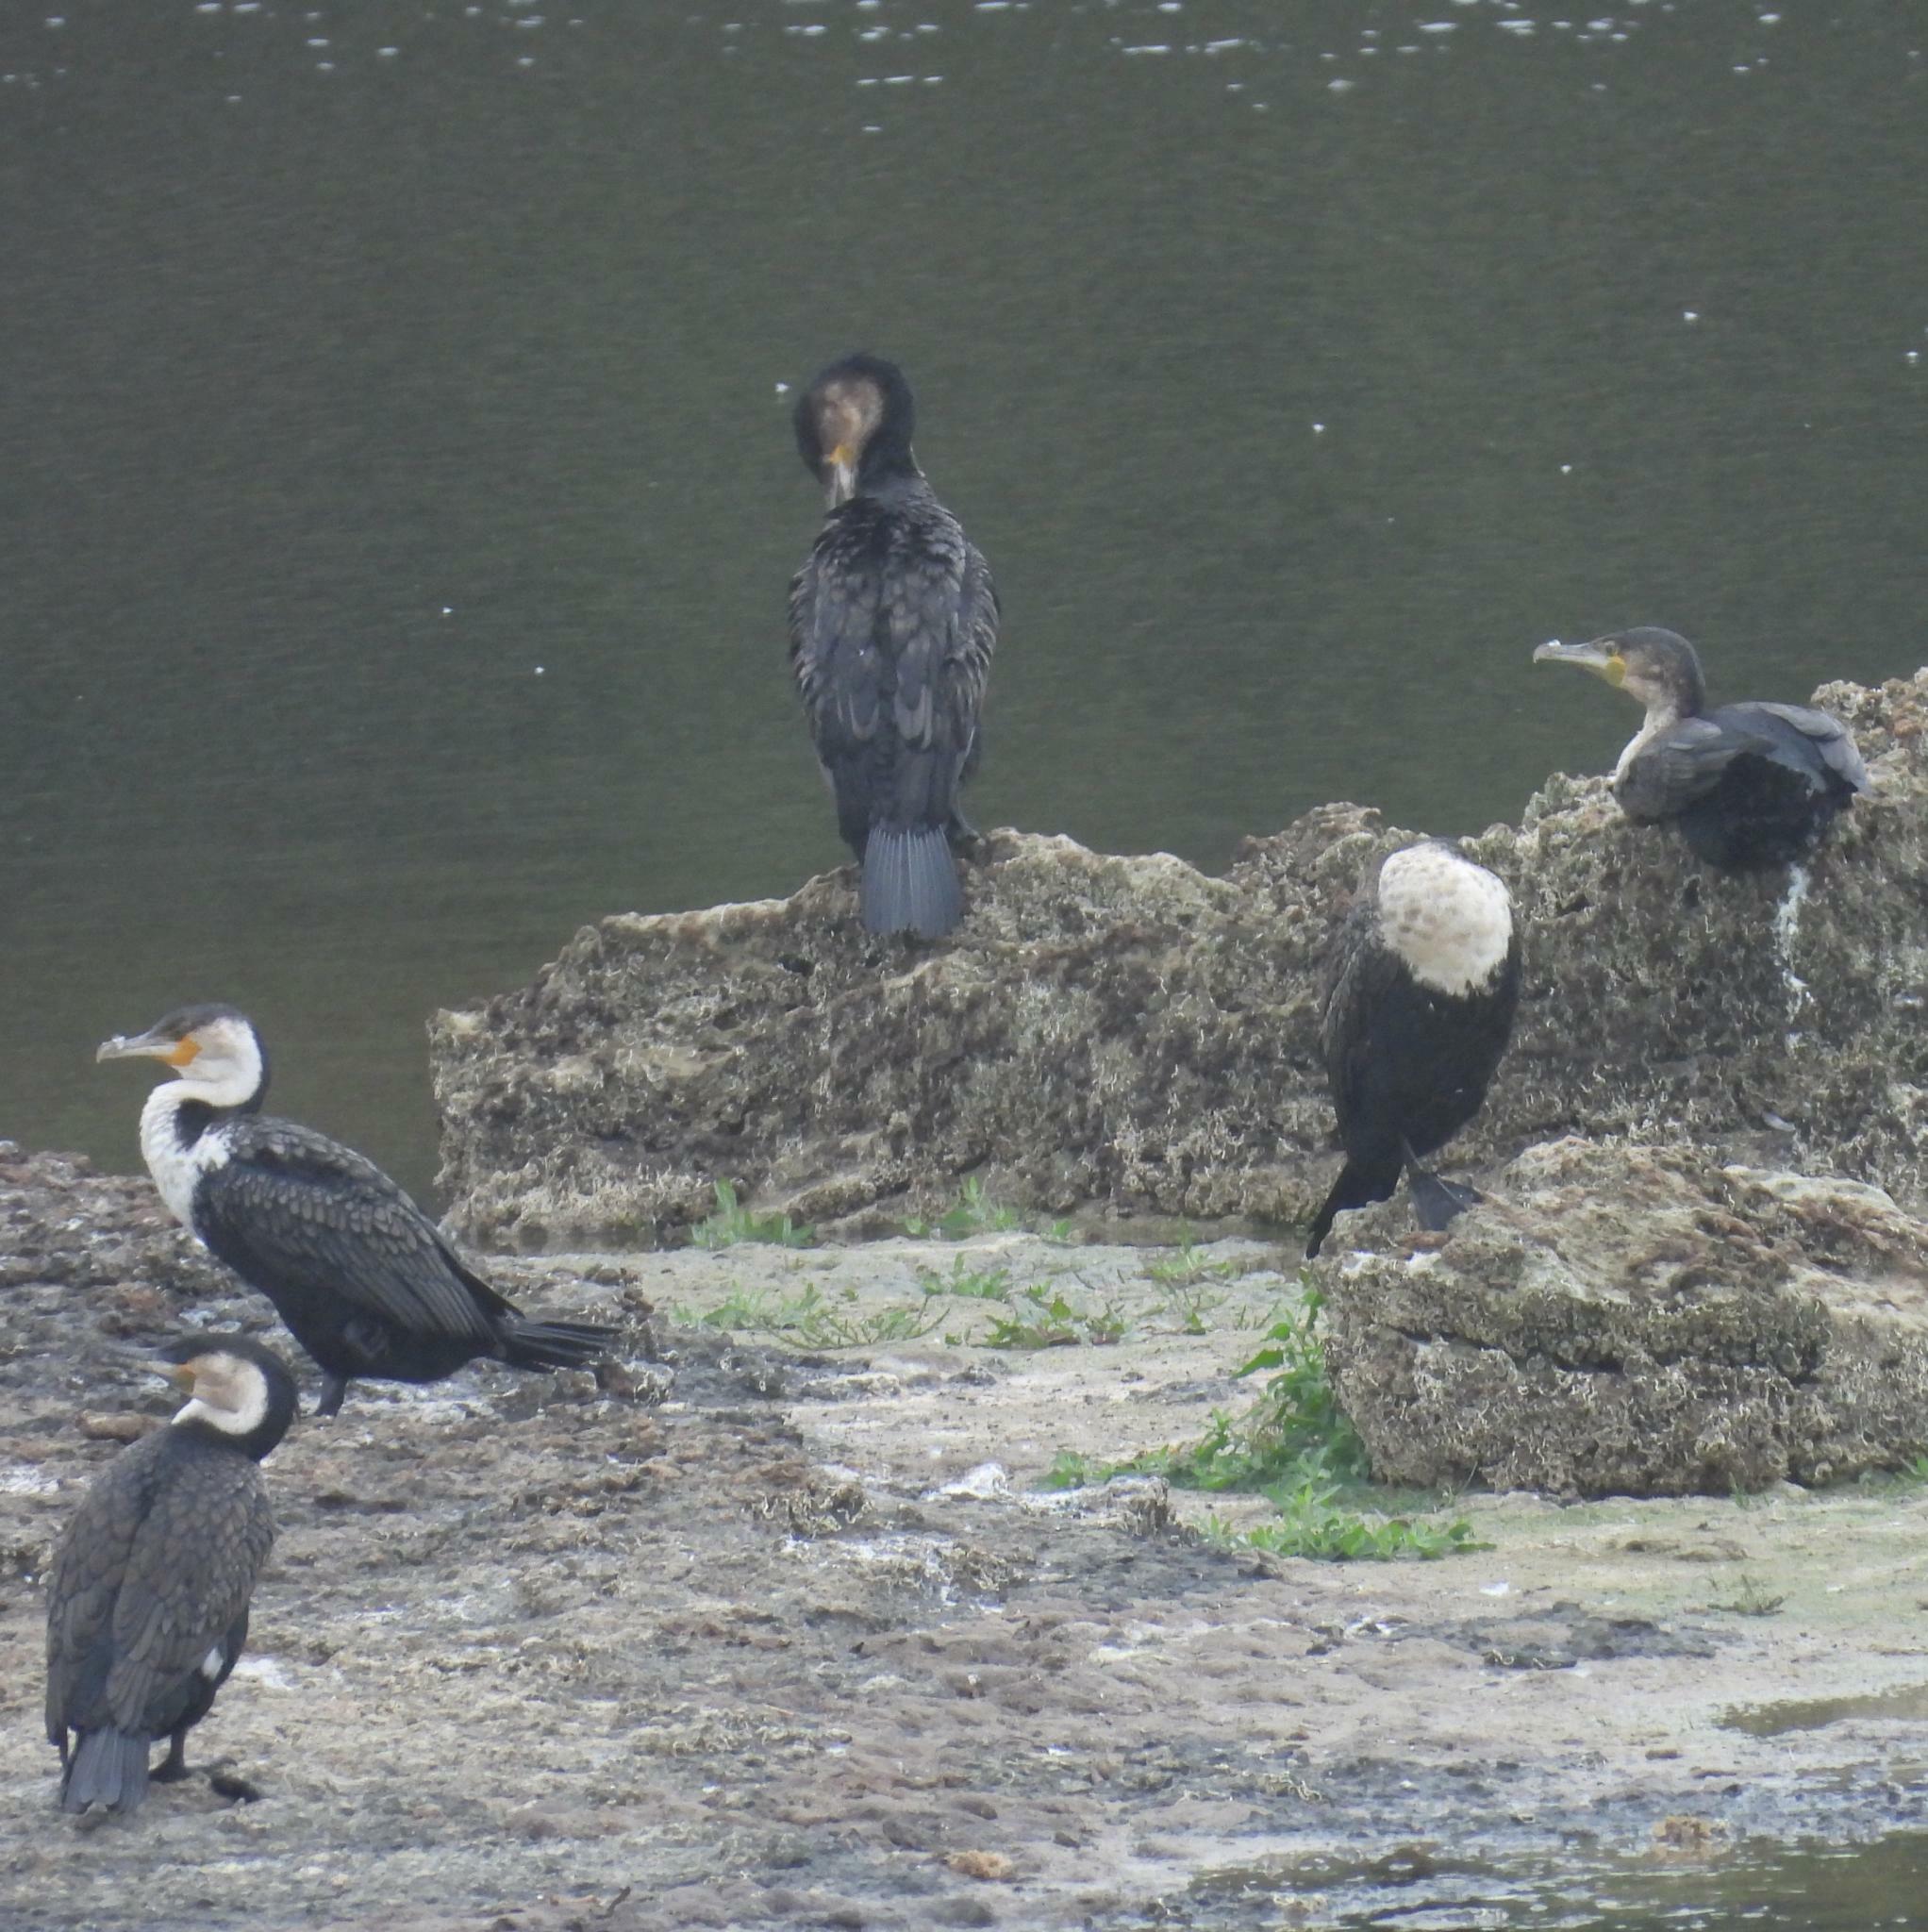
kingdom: Animalia
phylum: Chordata
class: Aves
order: Suliformes
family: Phalacrocoracidae
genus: Phalacrocorax
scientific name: Phalacrocorax carbo
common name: Great cormorant
